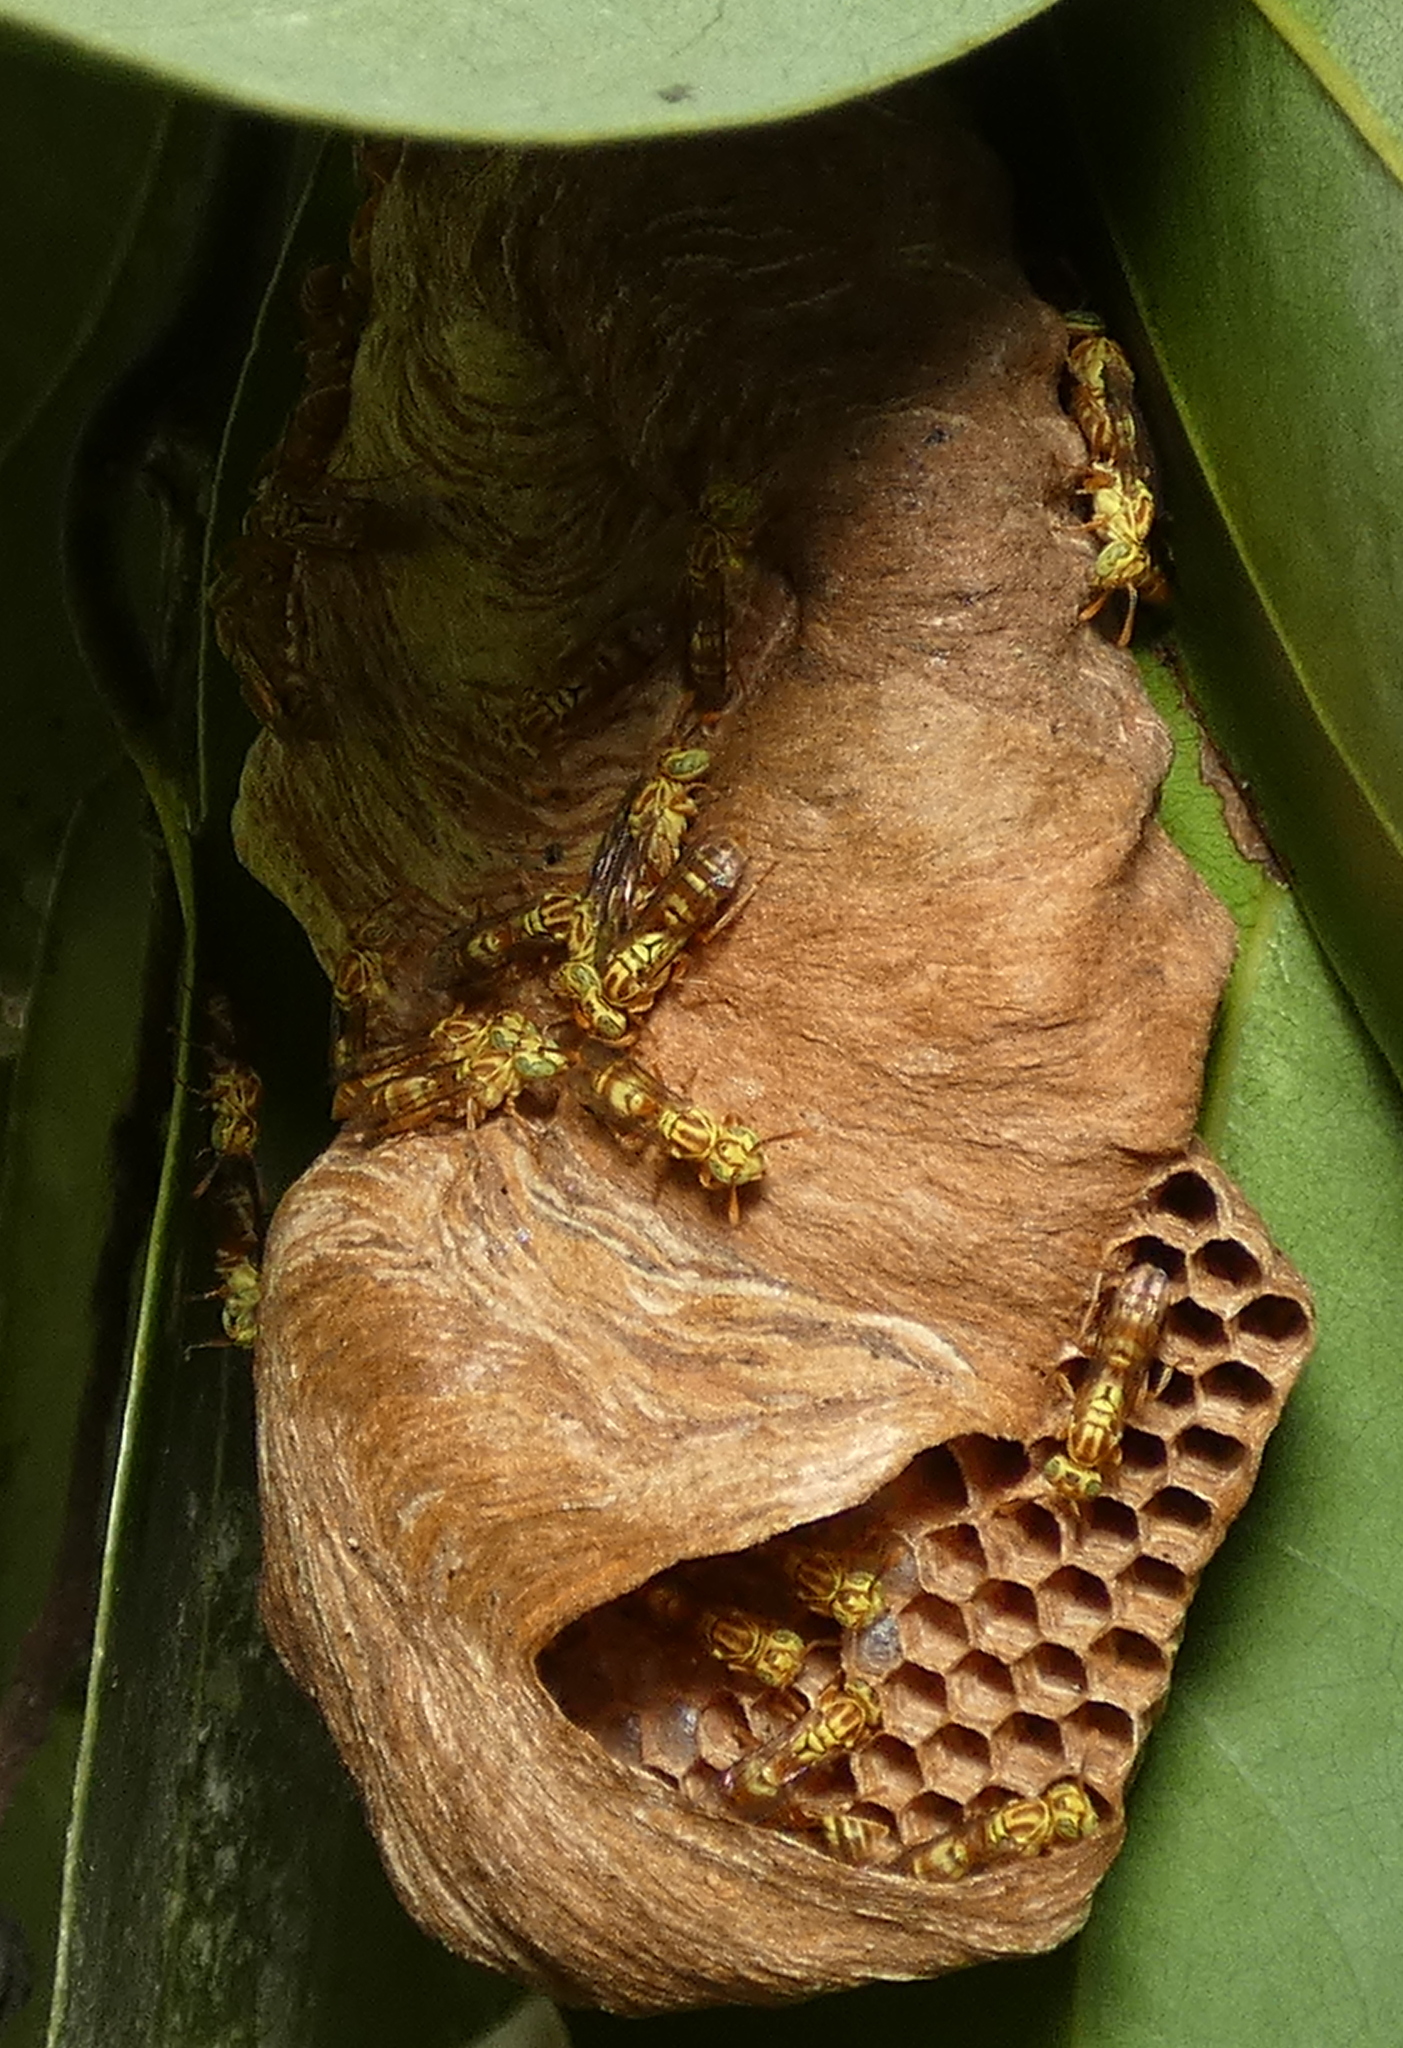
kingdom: Animalia
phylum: Arthropoda
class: Insecta
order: Hymenoptera
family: Vespidae
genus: Protopolybia
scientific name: Protopolybia potiguara
